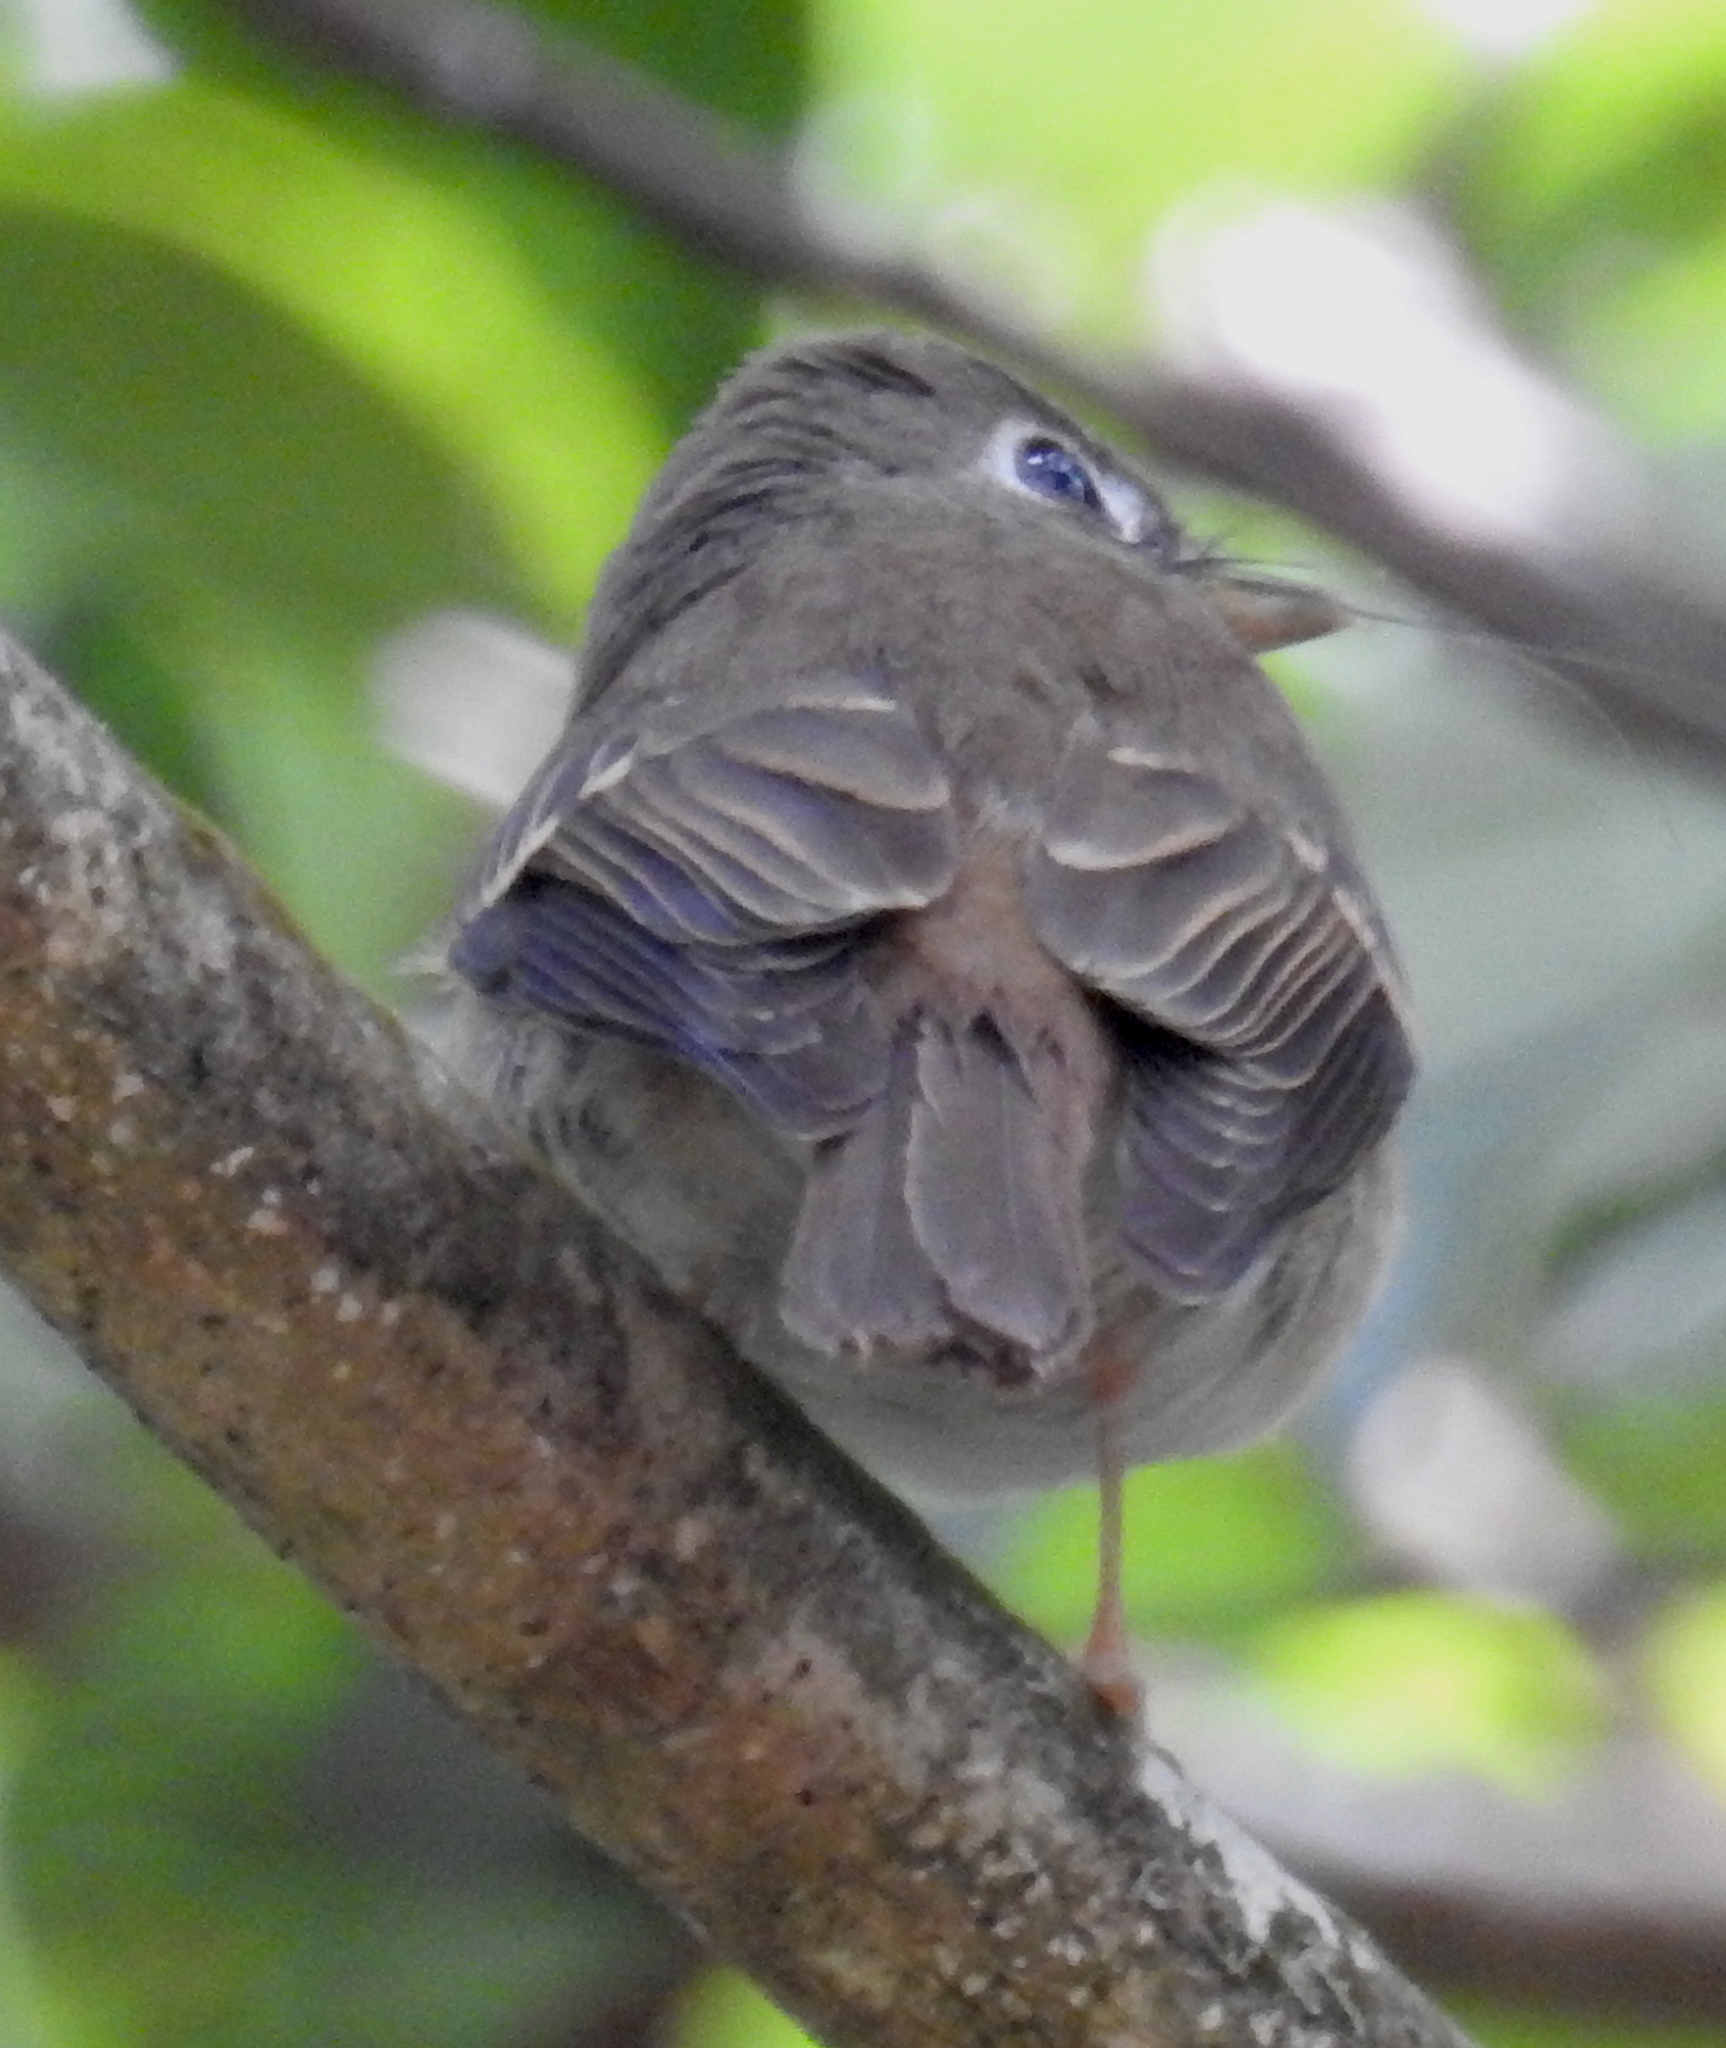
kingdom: Animalia
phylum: Chordata
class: Aves
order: Passeriformes
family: Muscicapidae
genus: Muscicapa
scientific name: Muscicapa muttui
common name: Brown-breasted flycatcher
